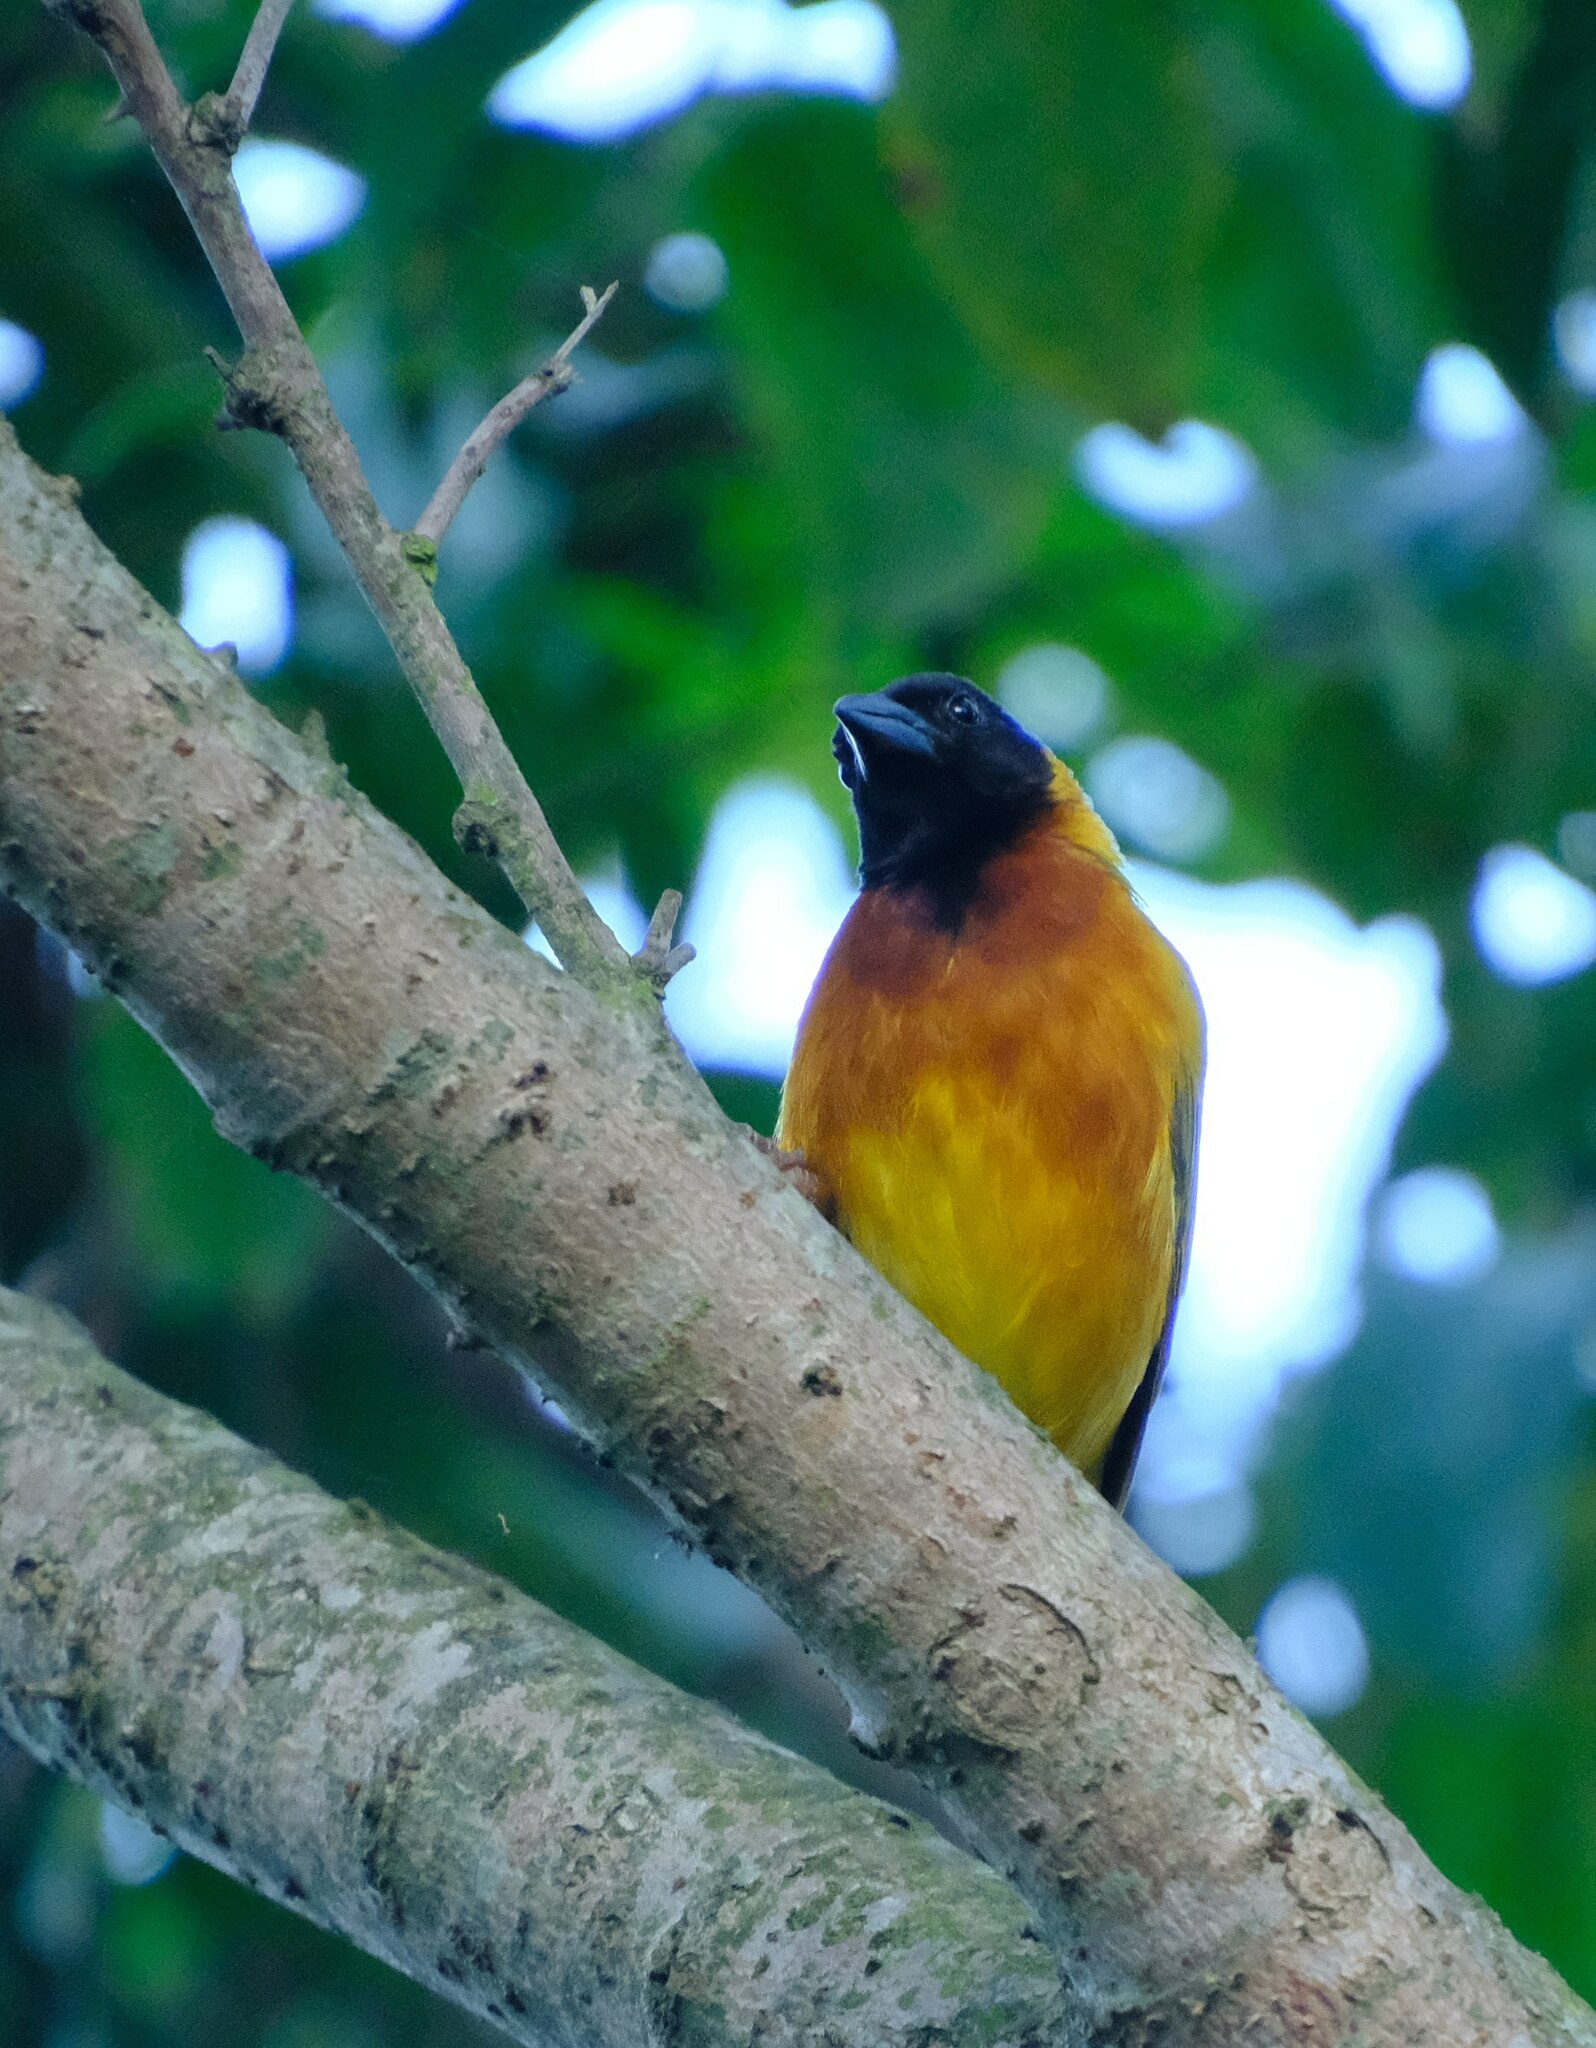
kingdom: Animalia
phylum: Chordata
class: Aves
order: Passeriformes
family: Ploceidae
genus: Ploceus
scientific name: Ploceus melanocephalus
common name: Black-headed weaver
